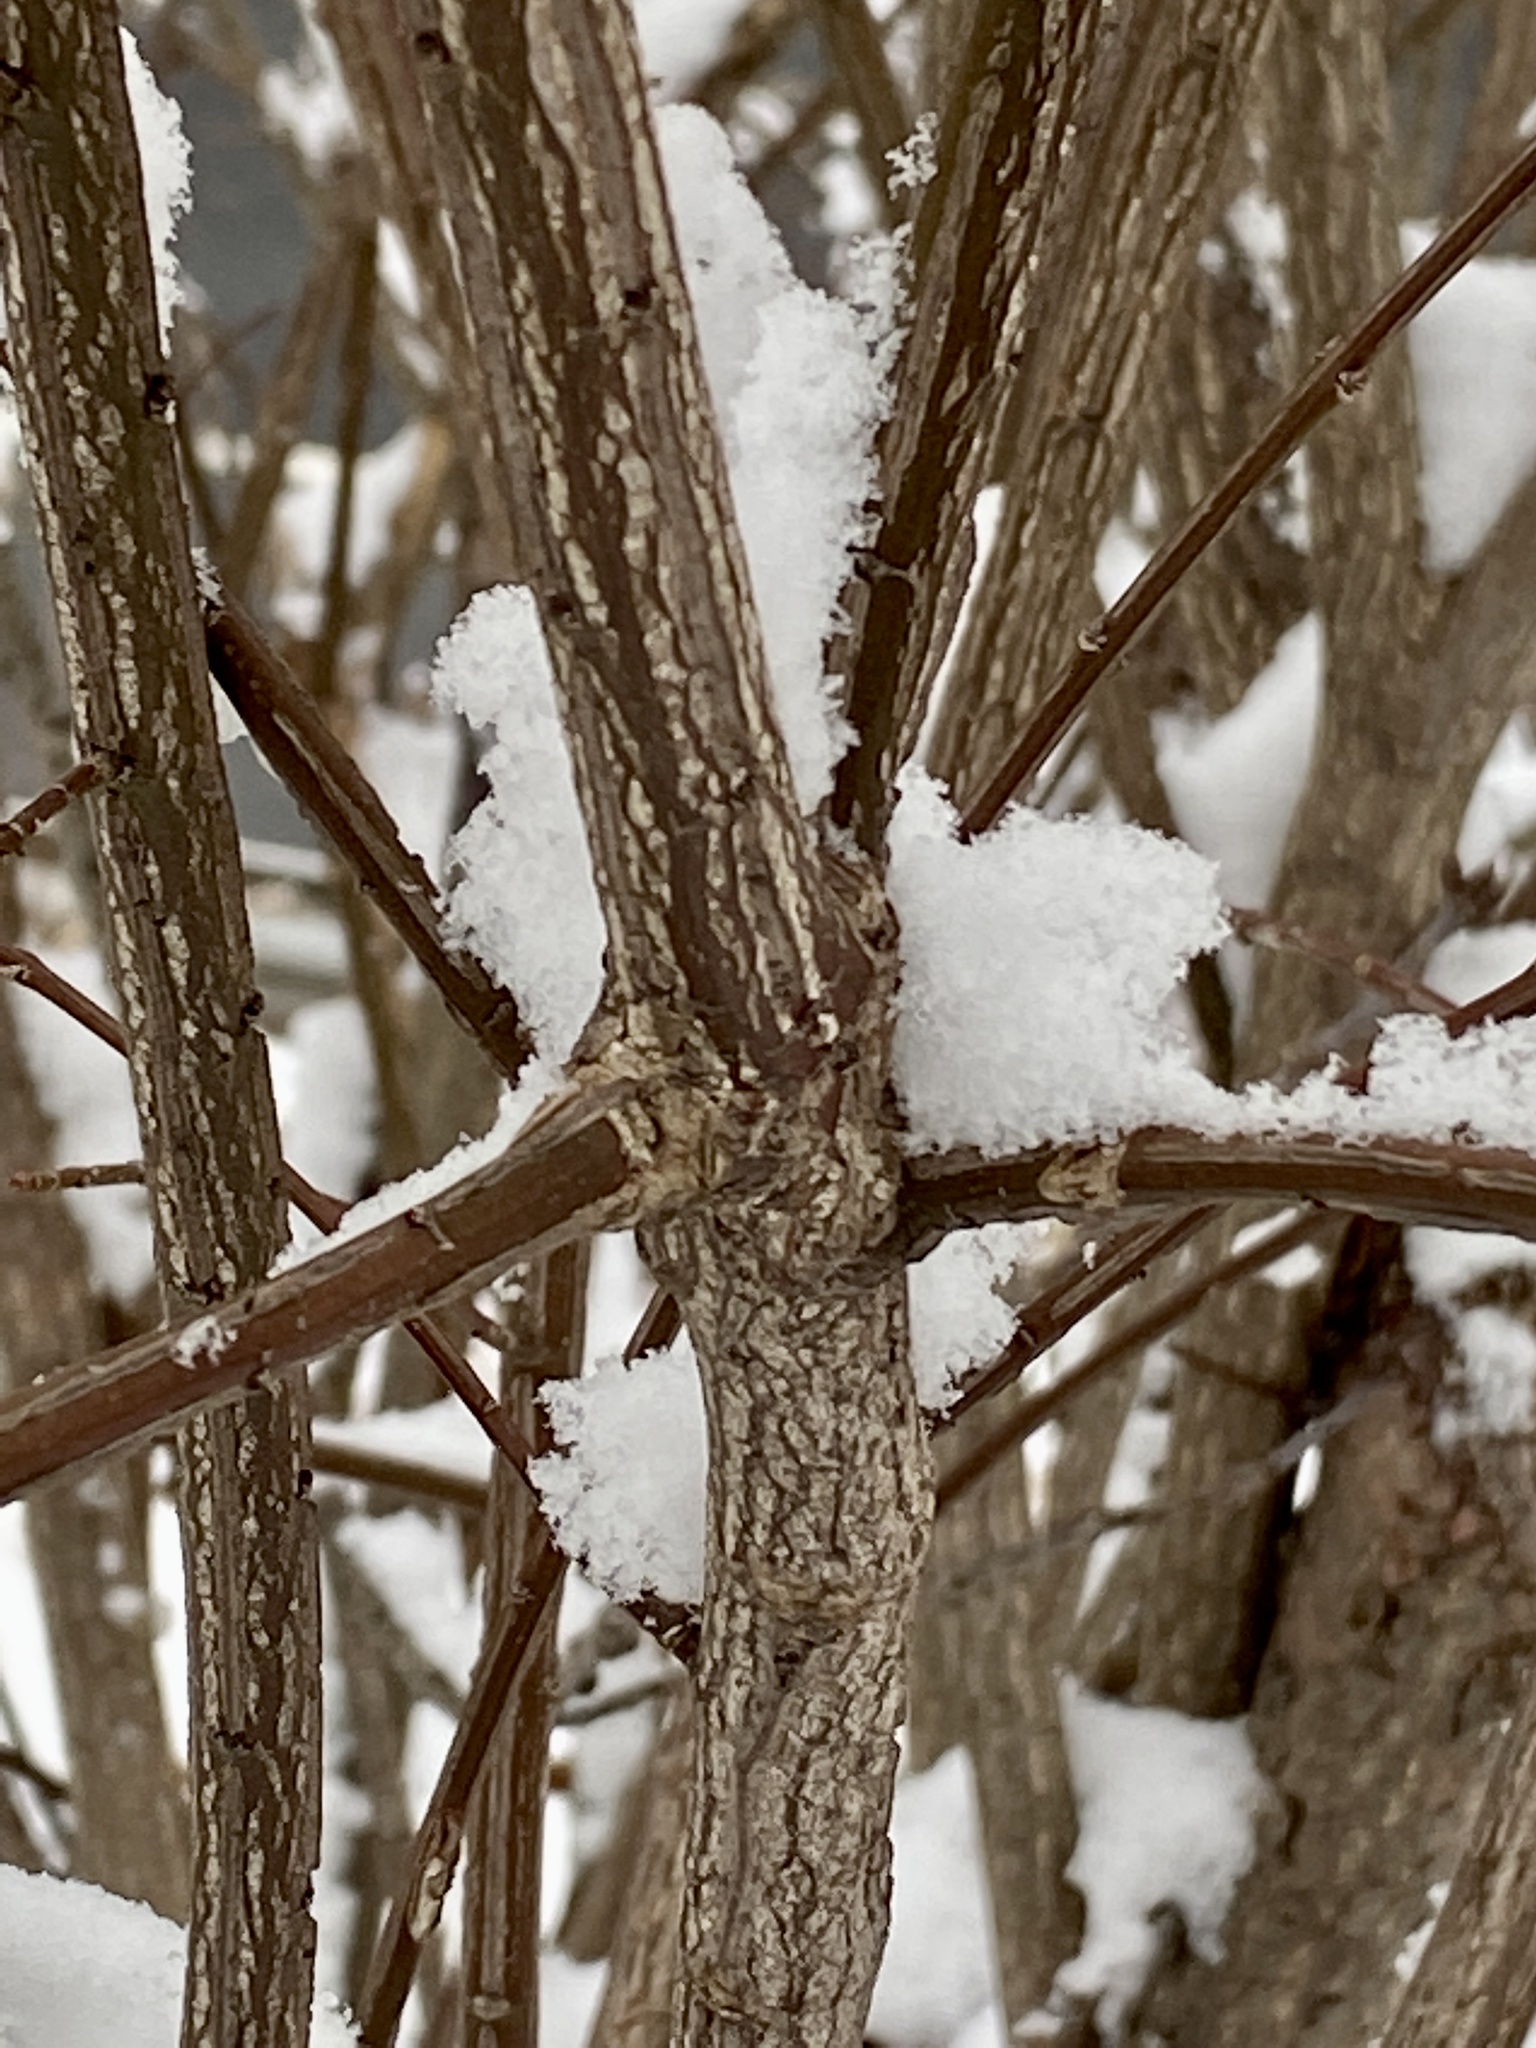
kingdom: Plantae
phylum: Tracheophyta
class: Magnoliopsida
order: Celastrales
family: Celastraceae
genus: Euonymus
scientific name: Euonymus alatus
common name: Winged euonymus
